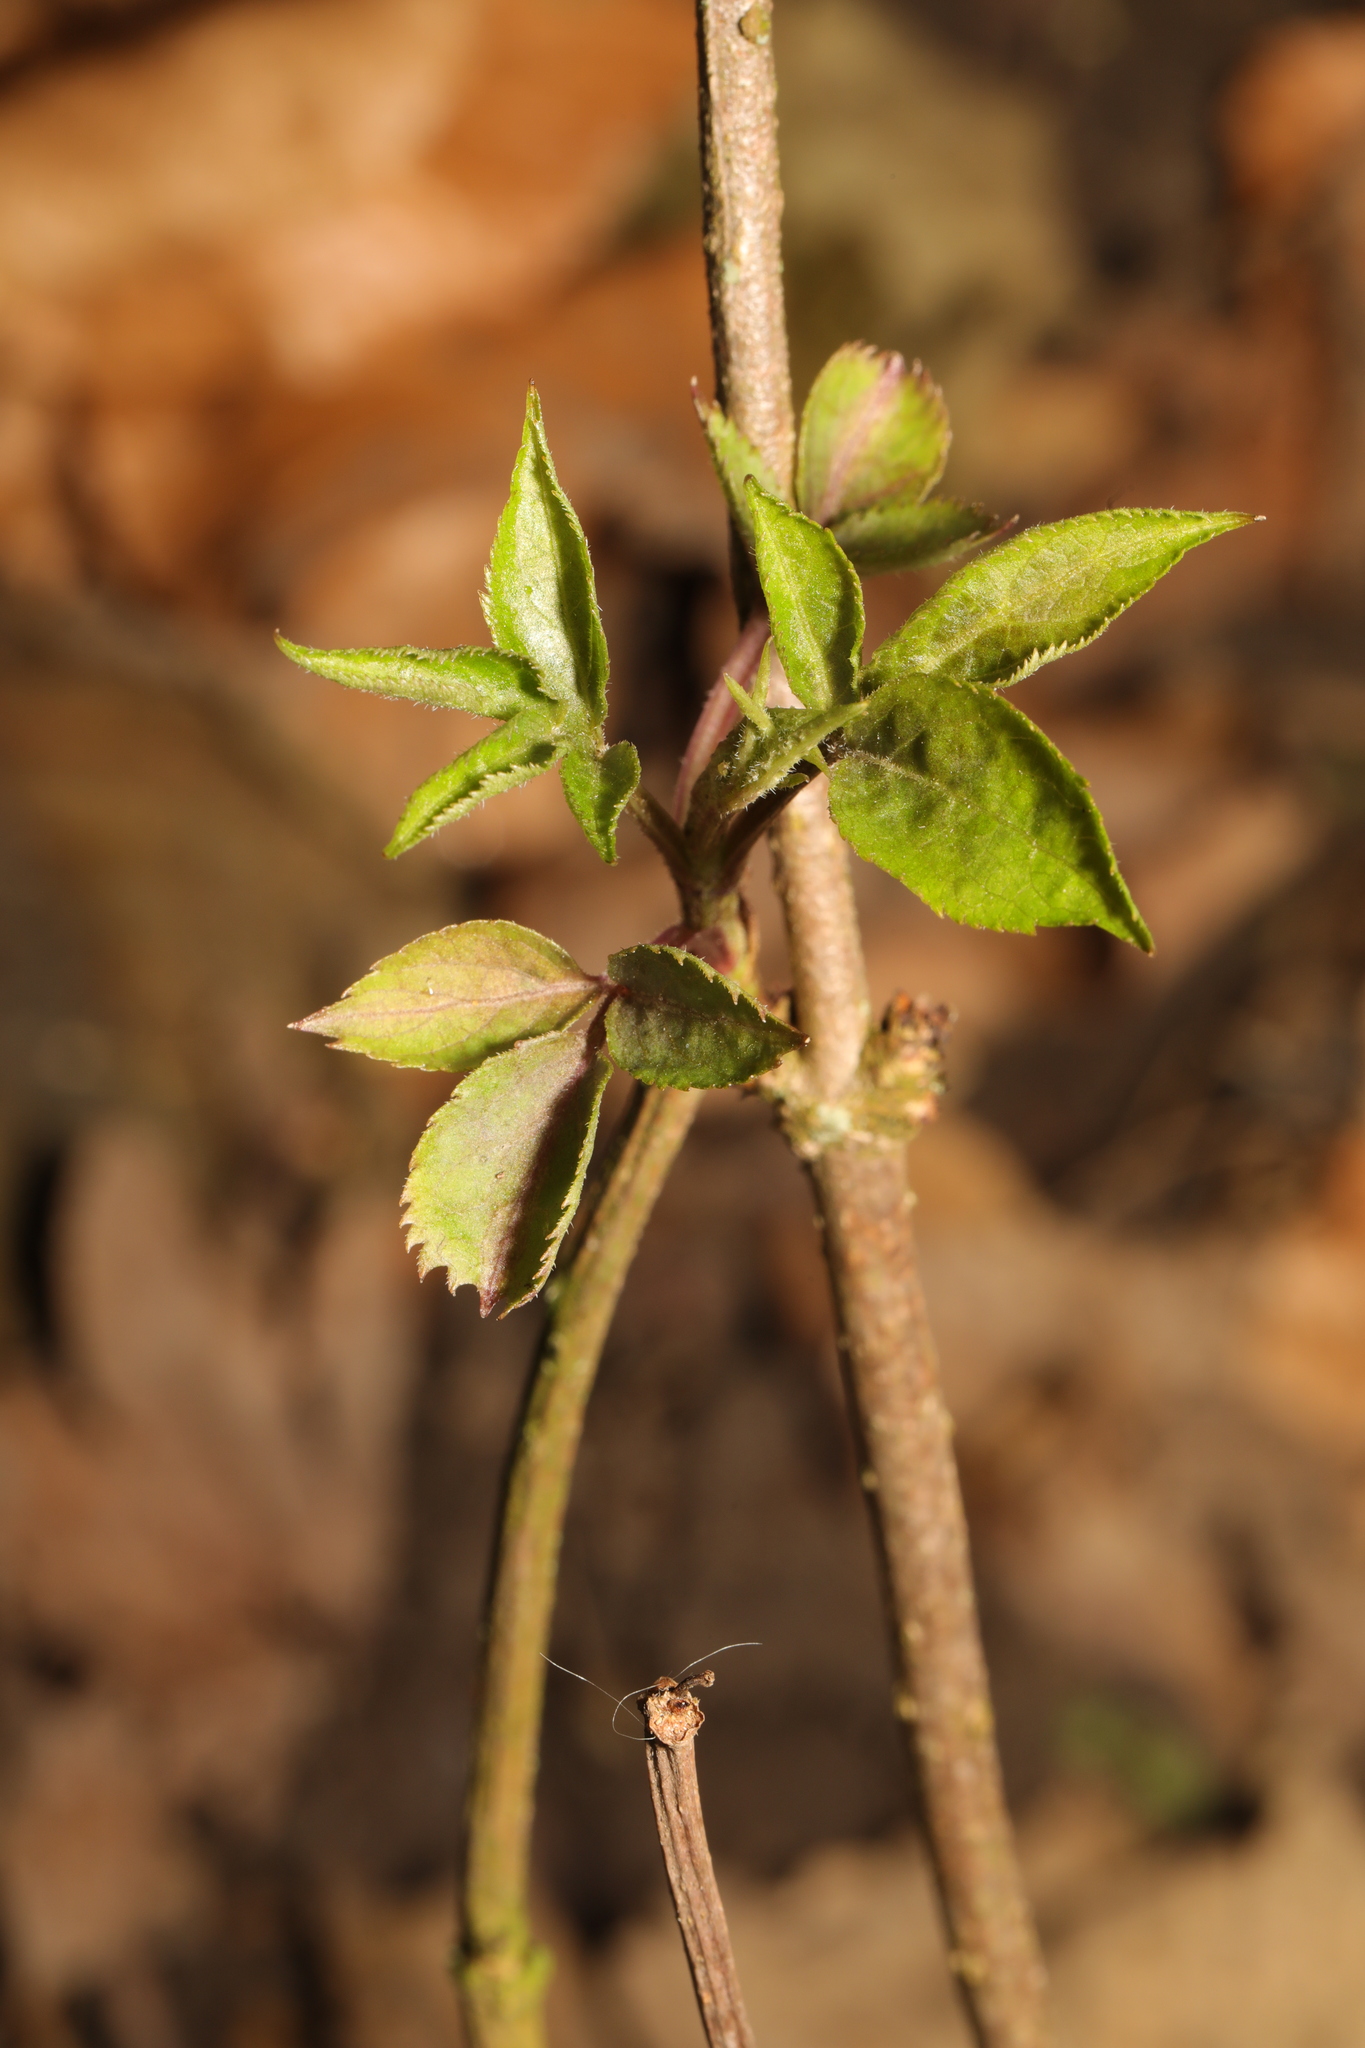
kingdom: Plantae
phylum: Tracheophyta
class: Magnoliopsida
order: Dipsacales
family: Viburnaceae
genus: Sambucus
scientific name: Sambucus nigra
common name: Elder
